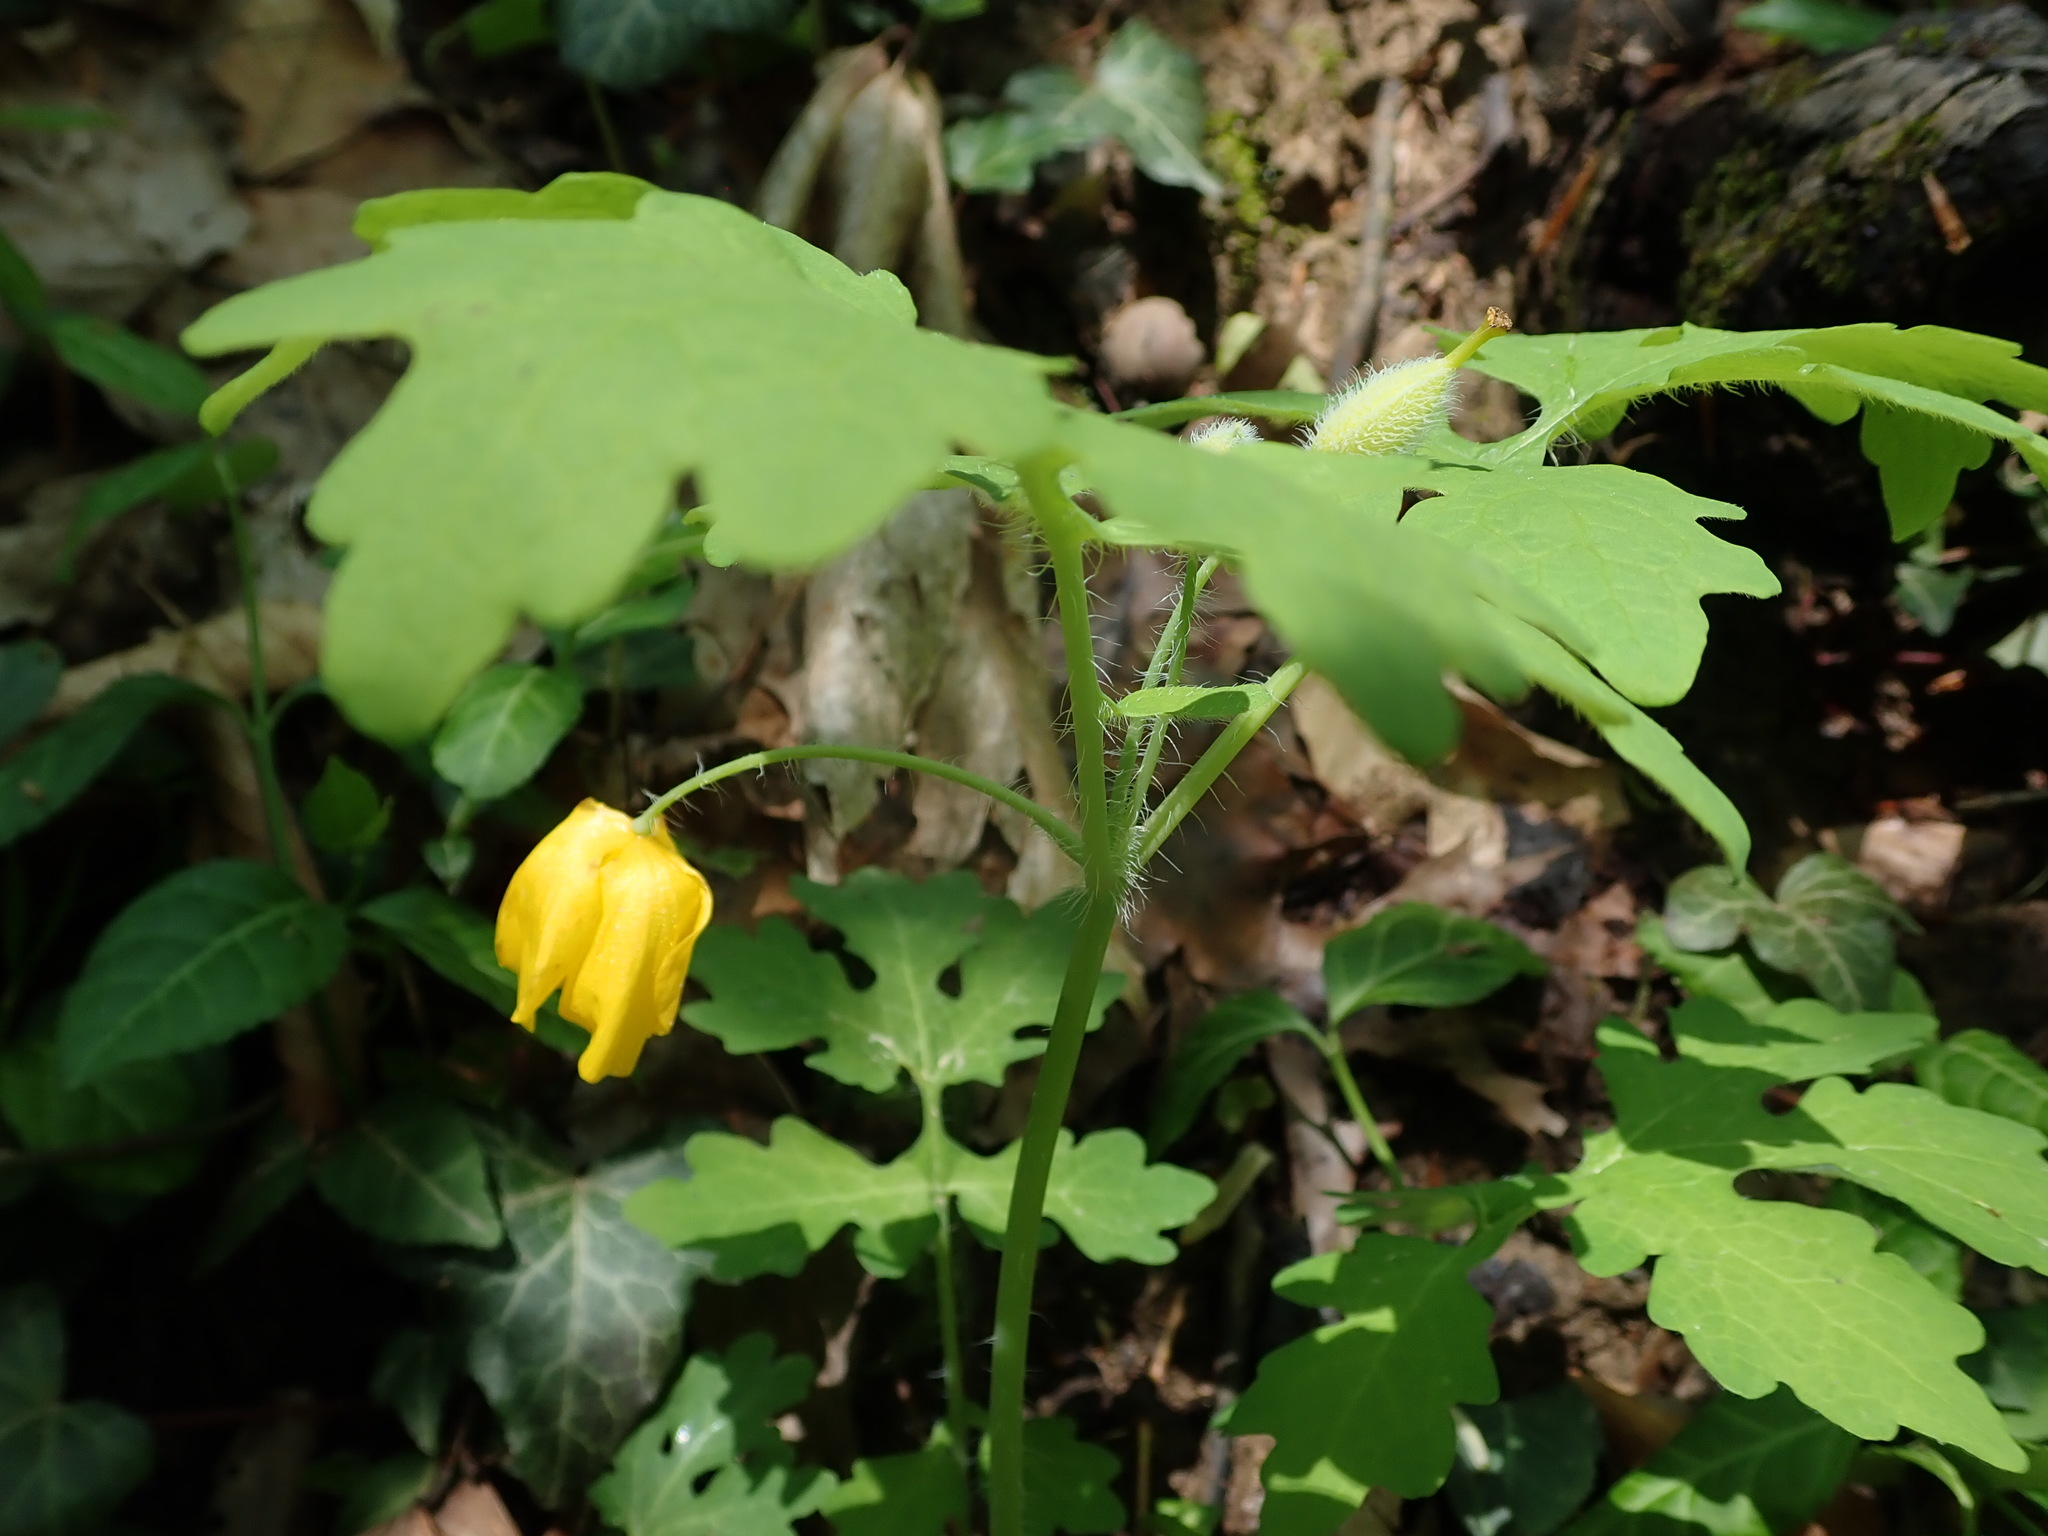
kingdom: Plantae
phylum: Tracheophyta
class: Magnoliopsida
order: Ranunculales
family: Papaveraceae
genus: Stylophorum
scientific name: Stylophorum diphyllum
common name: Celandine poppy
